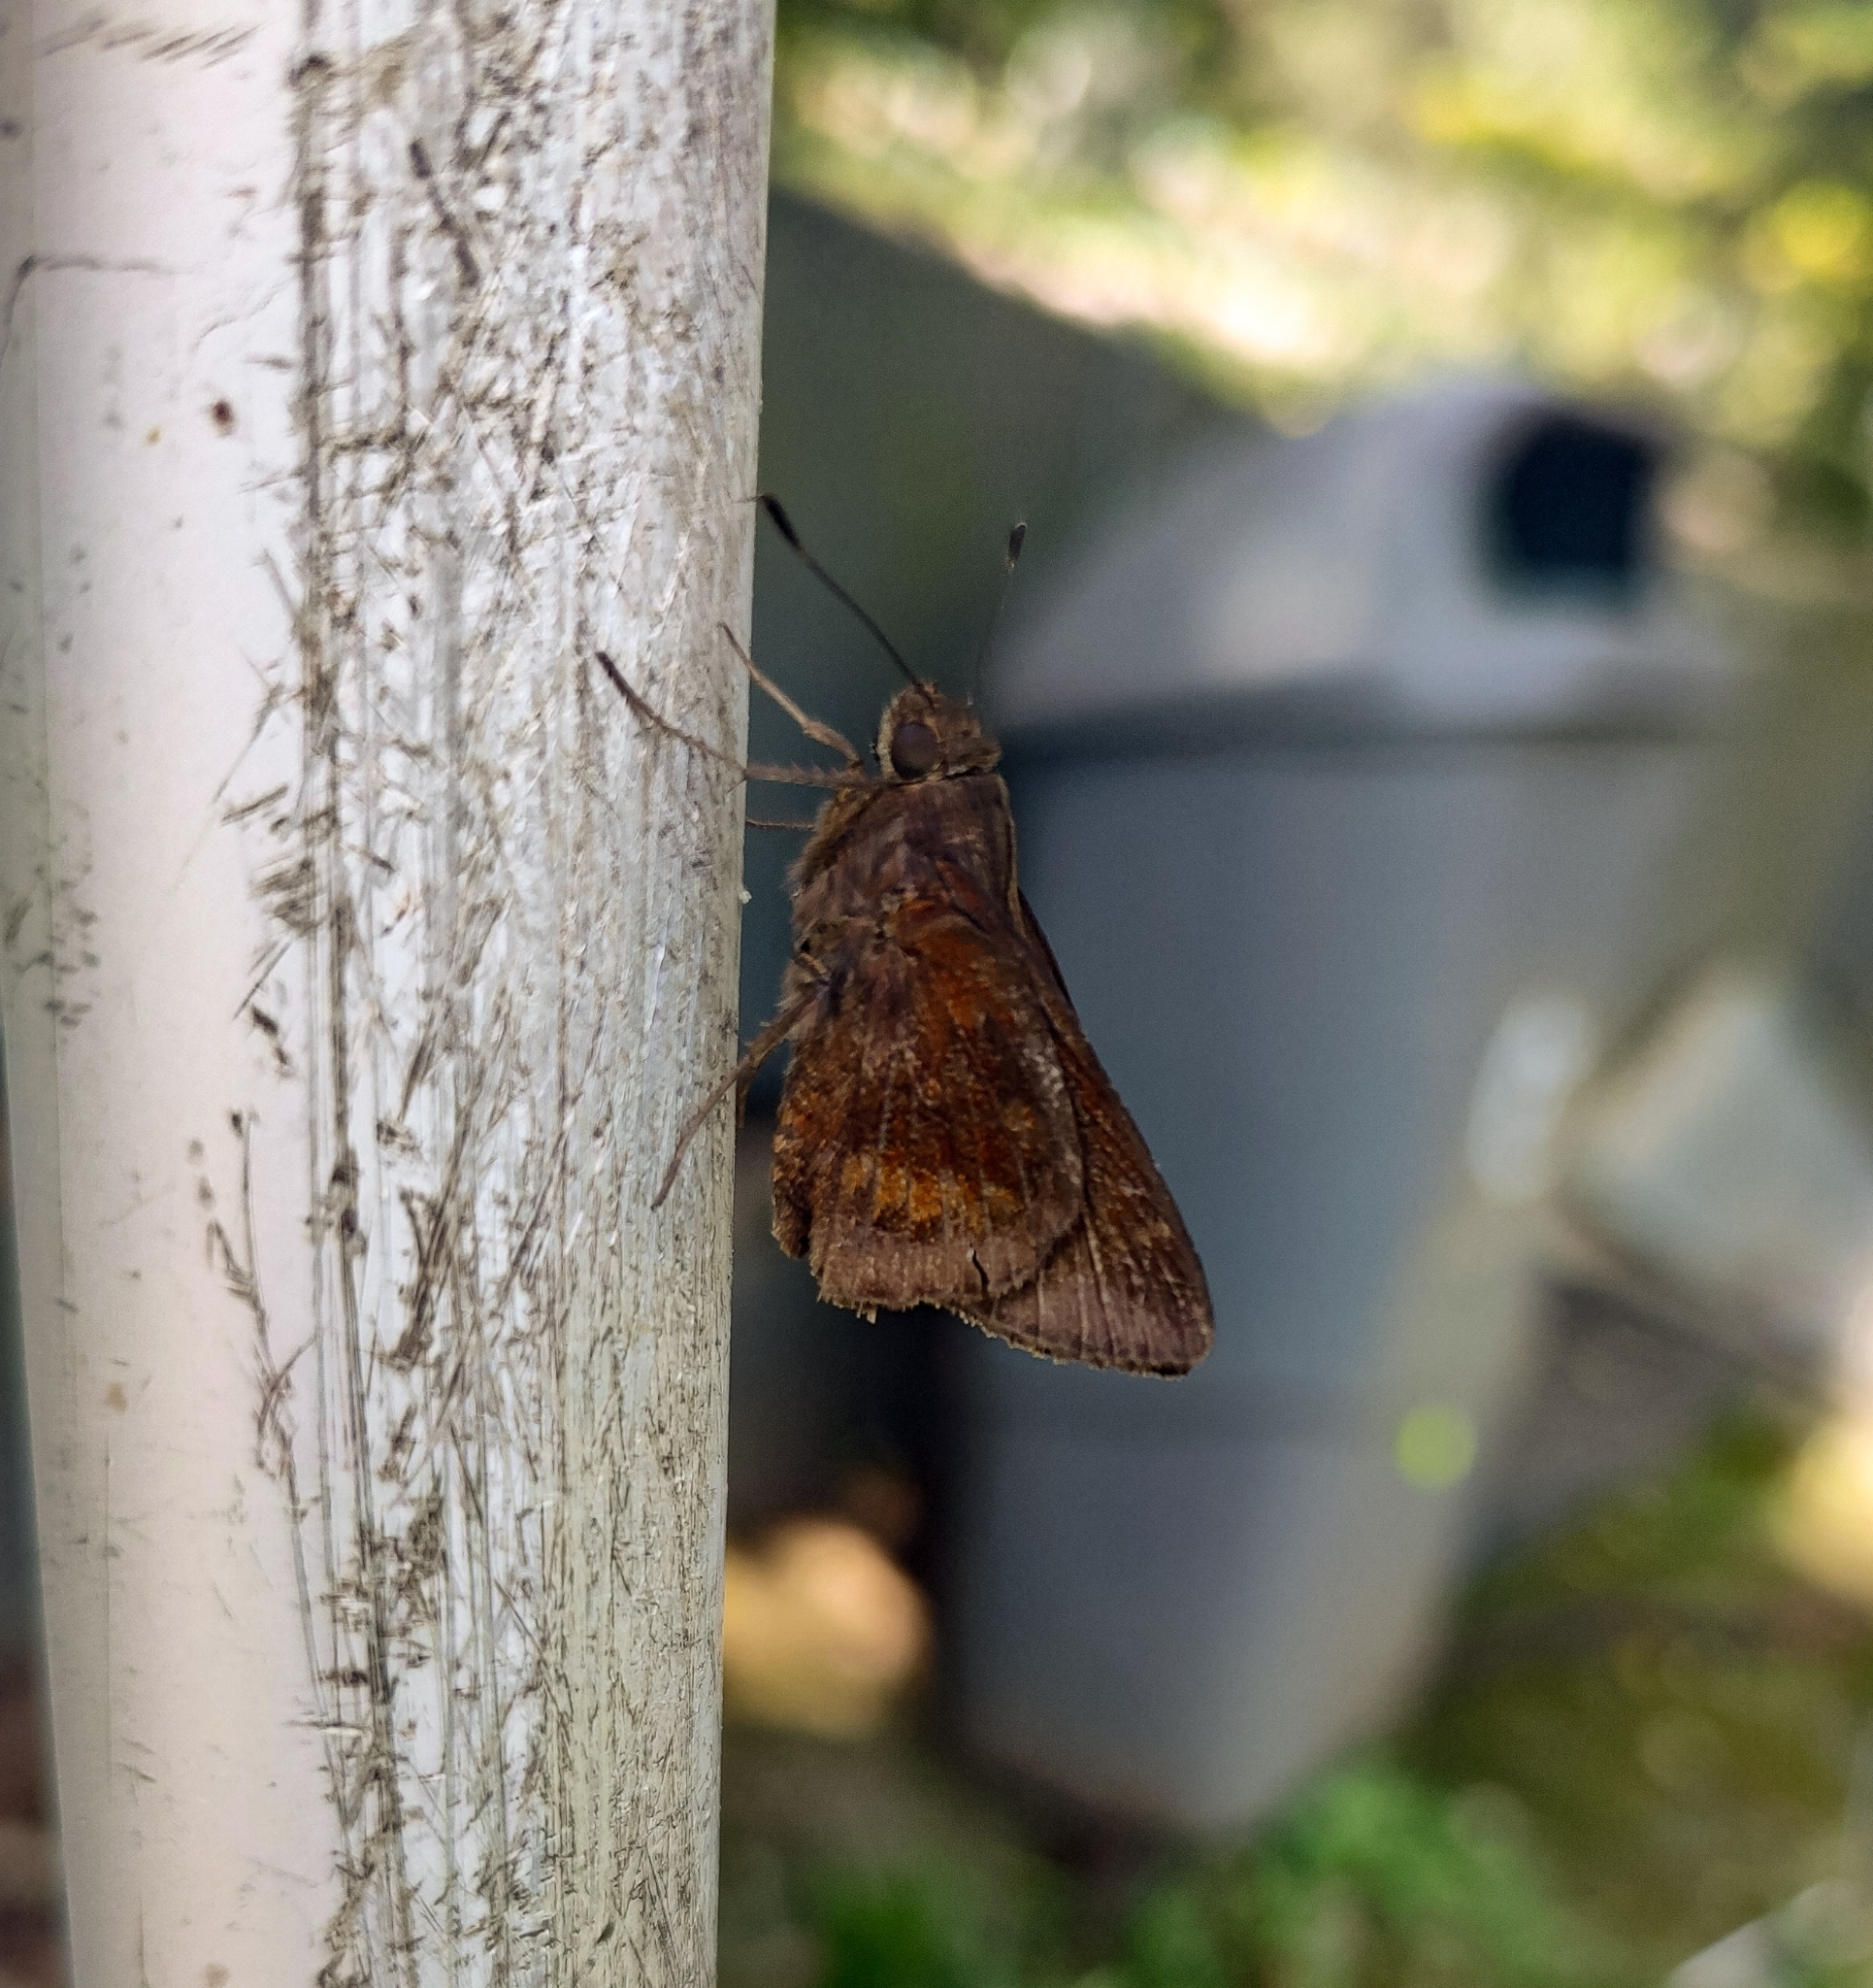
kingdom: Animalia
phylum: Arthropoda
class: Insecta
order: Lepidoptera
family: Hesperiidae
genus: Quinta
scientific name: Quinta cannae
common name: Canna skipper
